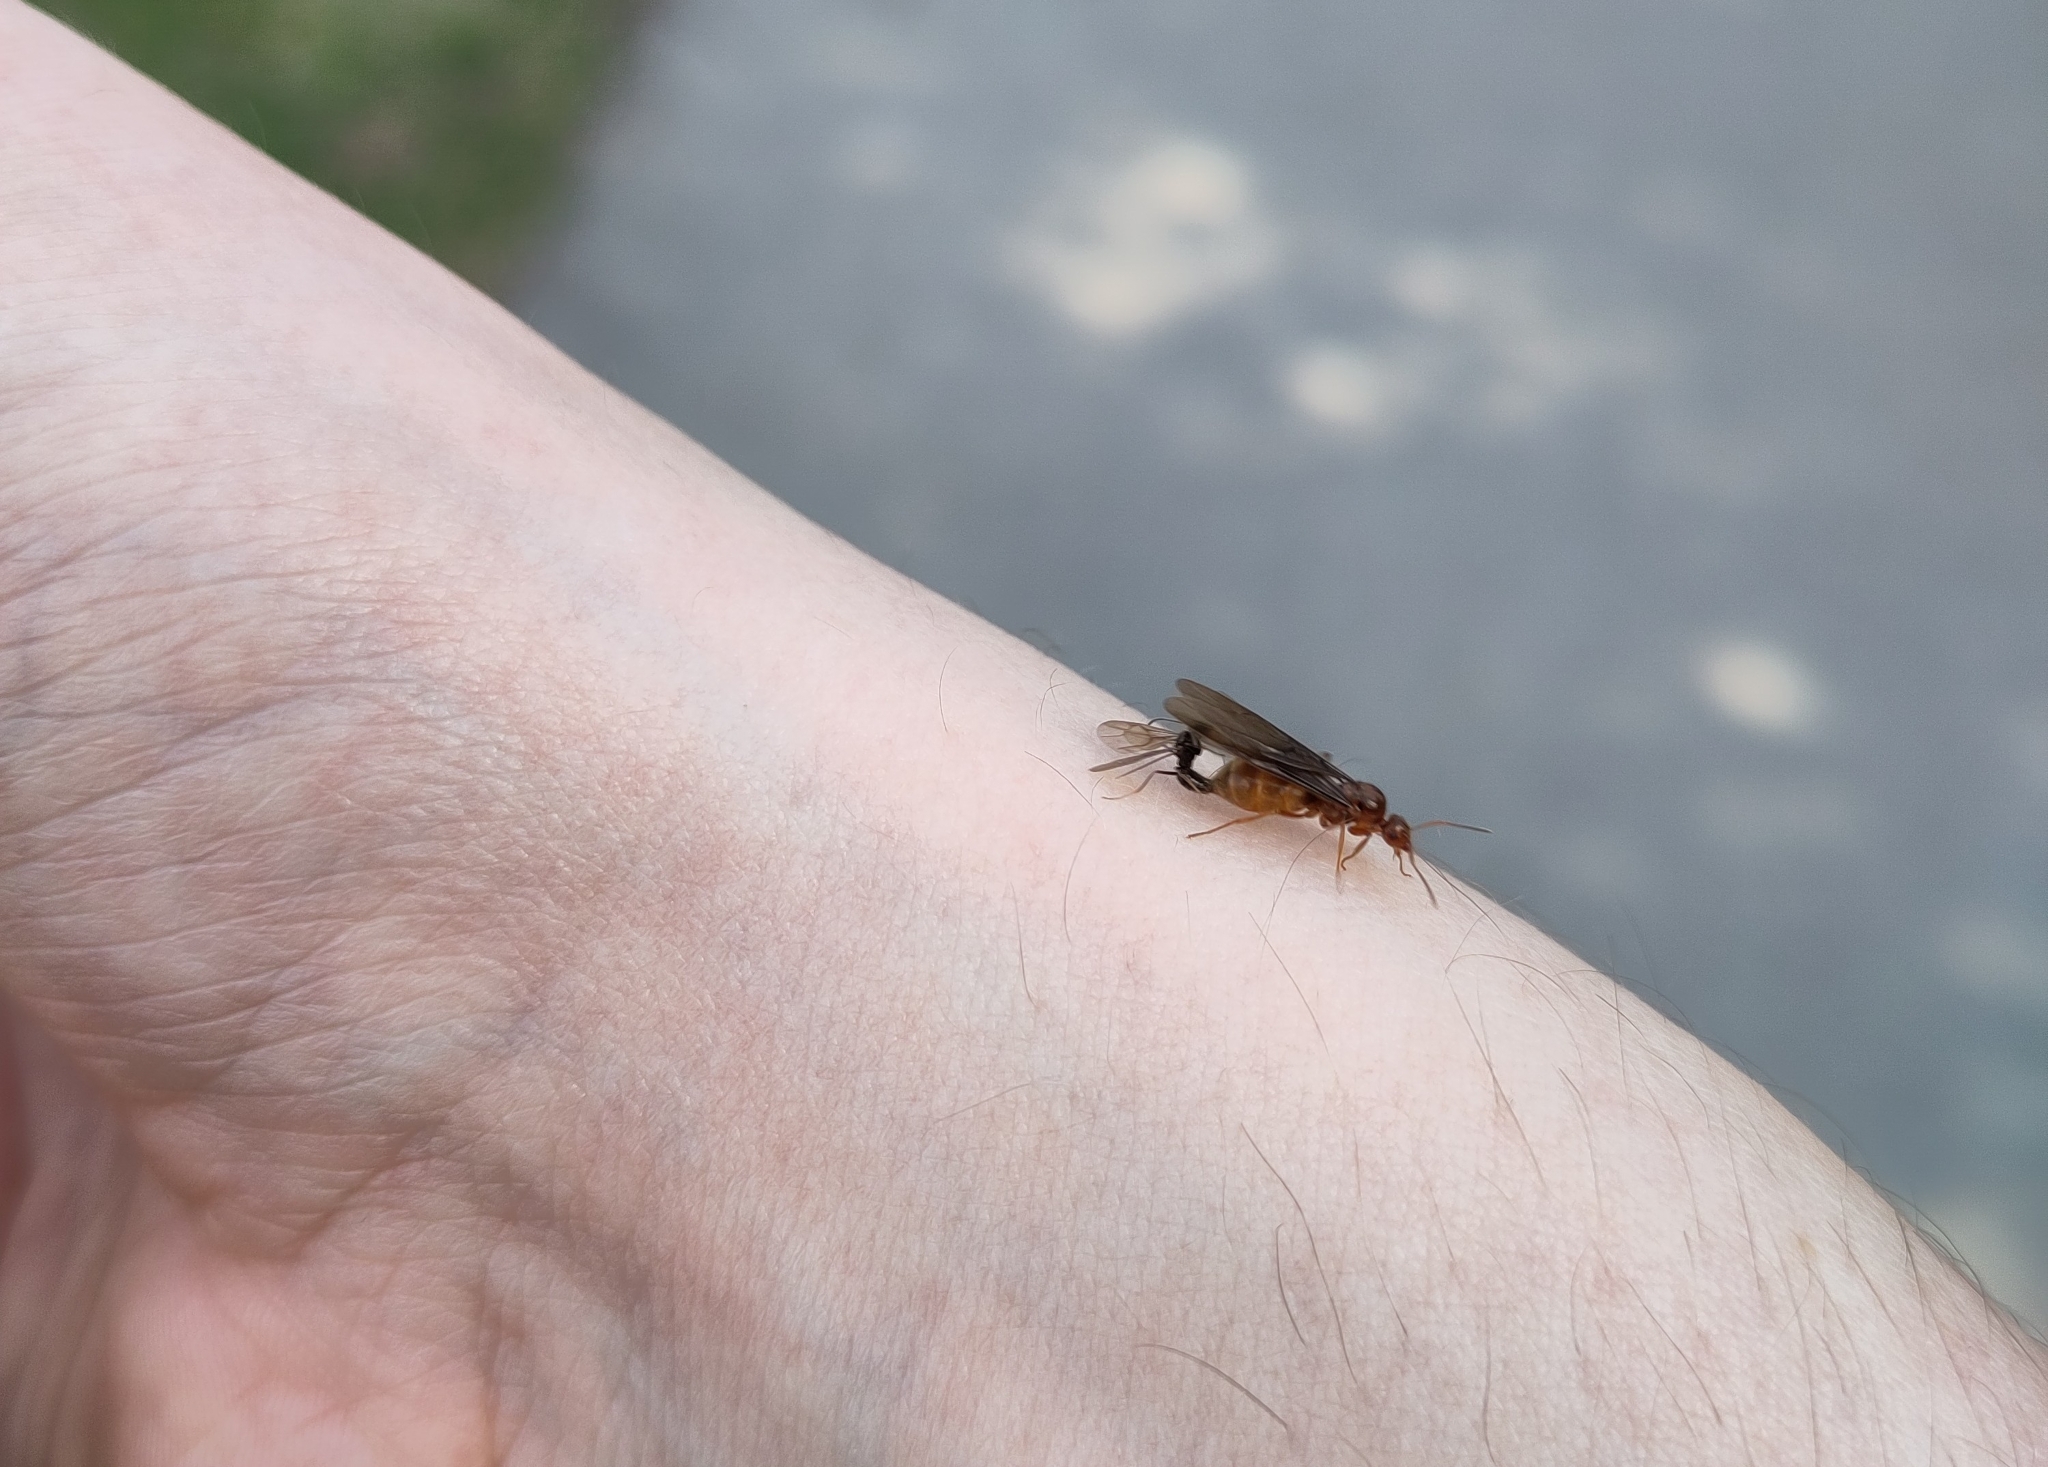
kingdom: Animalia
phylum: Arthropoda
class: Insecta
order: Hymenoptera
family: Formicidae
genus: Prenolepis
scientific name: Prenolepis nitens
